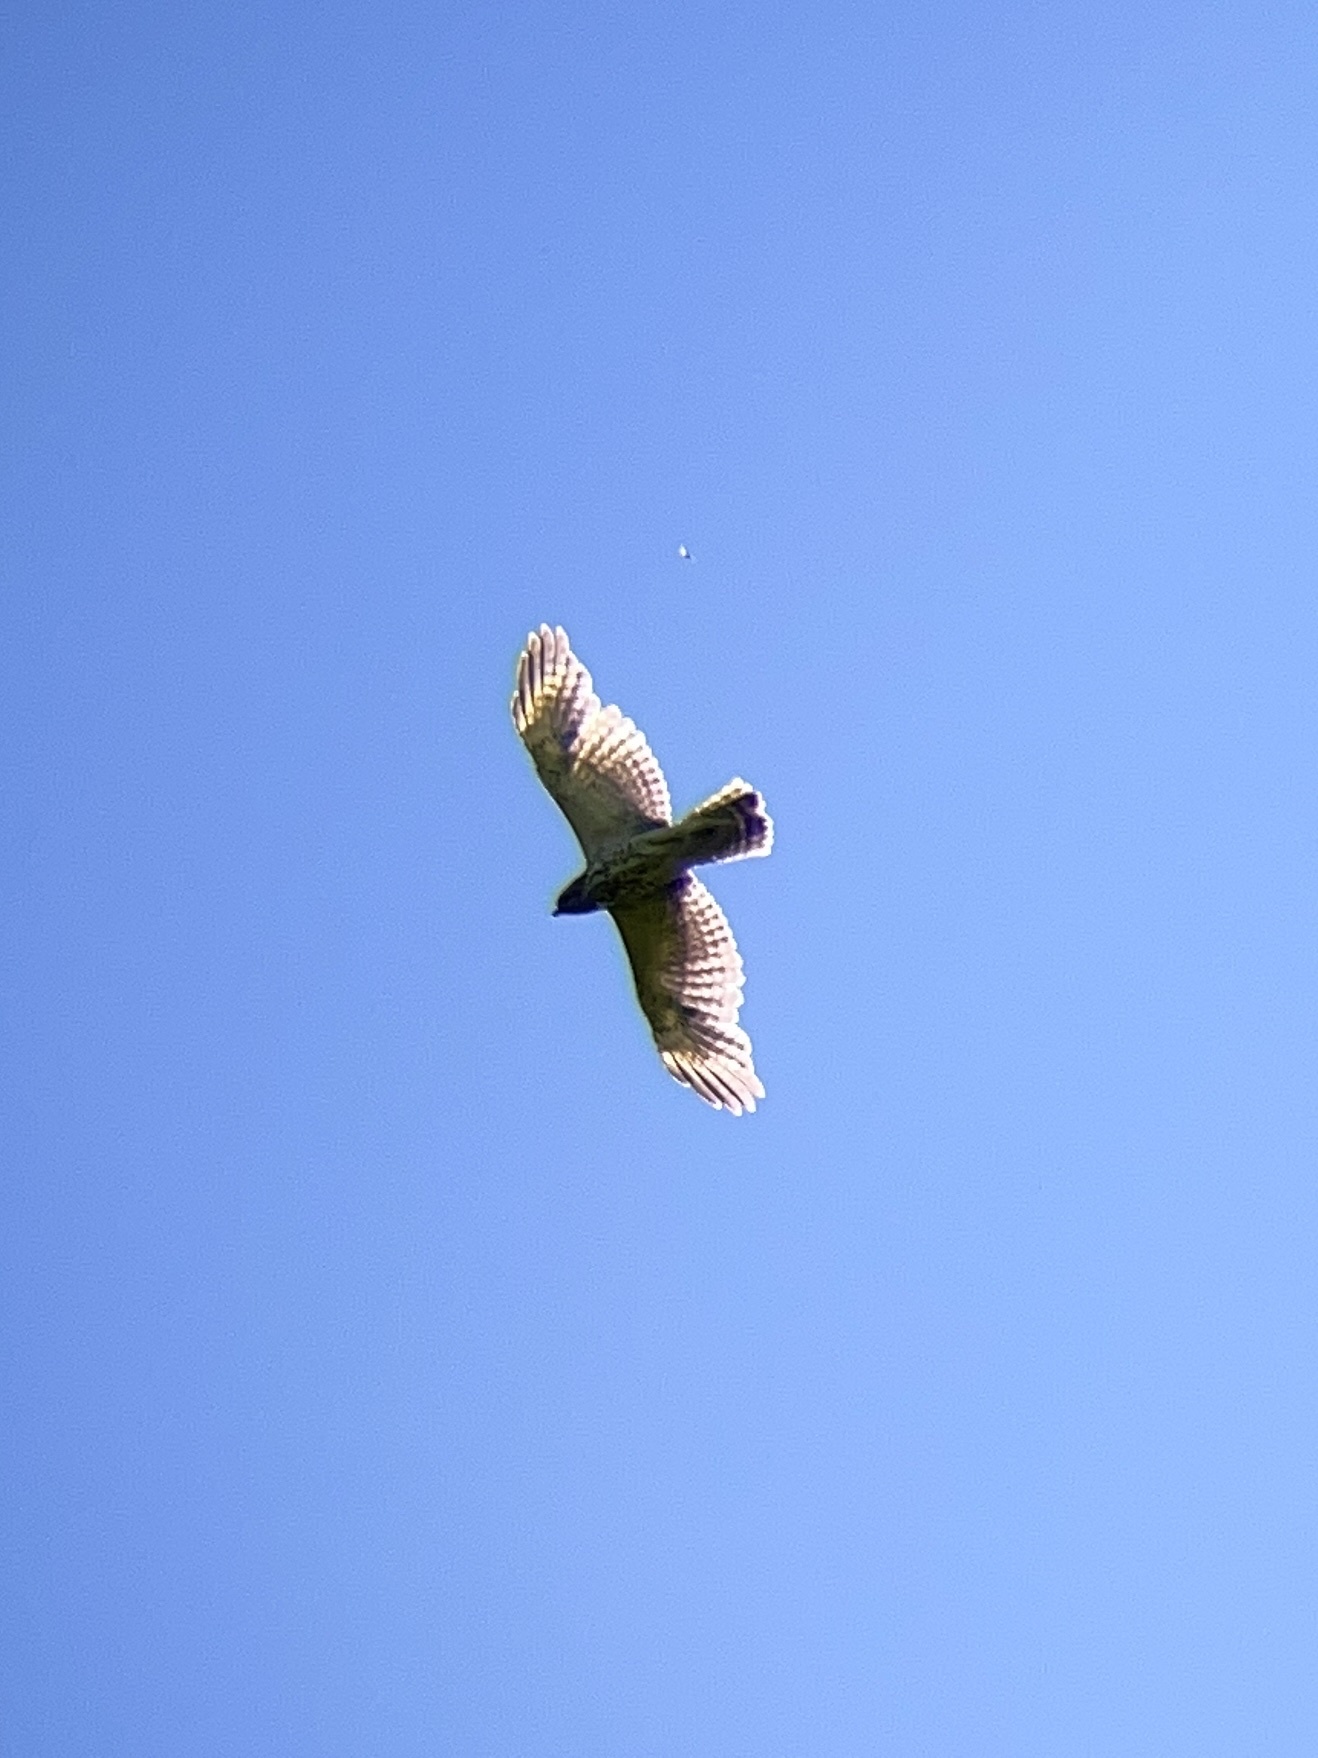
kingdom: Animalia
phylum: Chordata
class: Aves
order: Accipitriformes
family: Accipitridae
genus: Buteo
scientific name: Buteo lineatus
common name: Red-shouldered hawk
